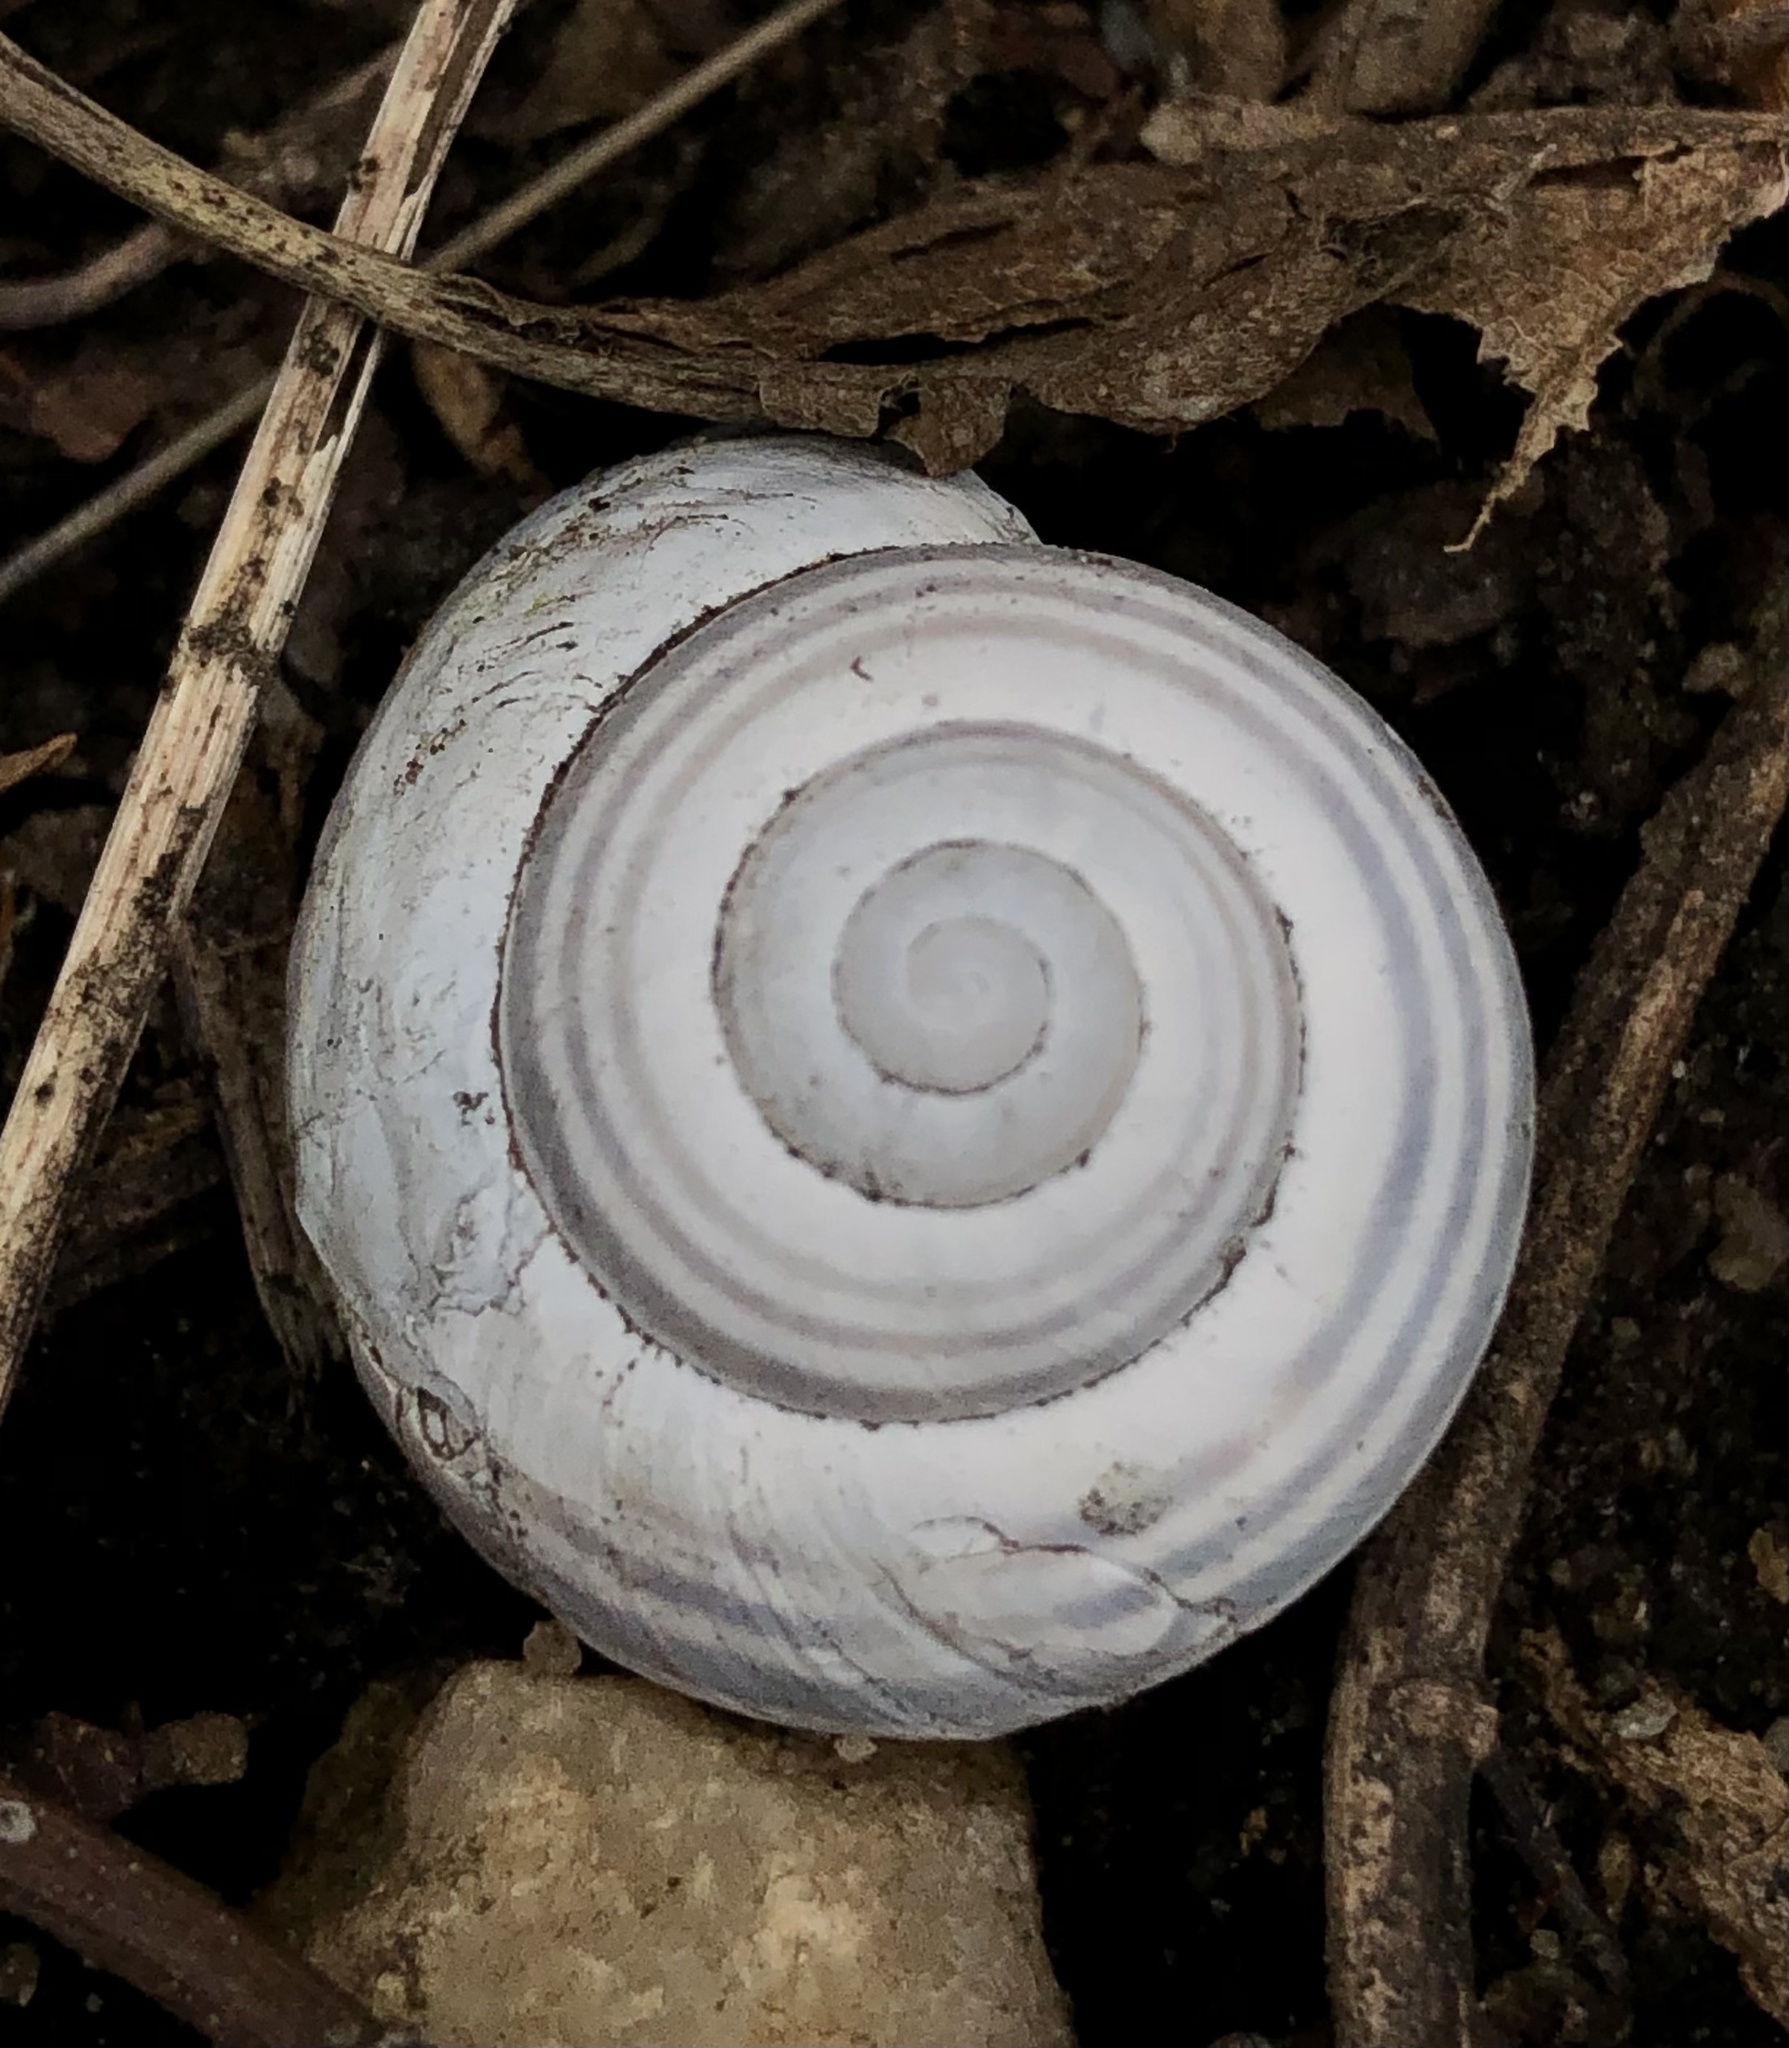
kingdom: Animalia
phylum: Mollusca
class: Gastropoda
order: Stylommatophora
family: Helicidae
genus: Cepaea
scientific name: Cepaea nemoralis
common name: Grovesnail
